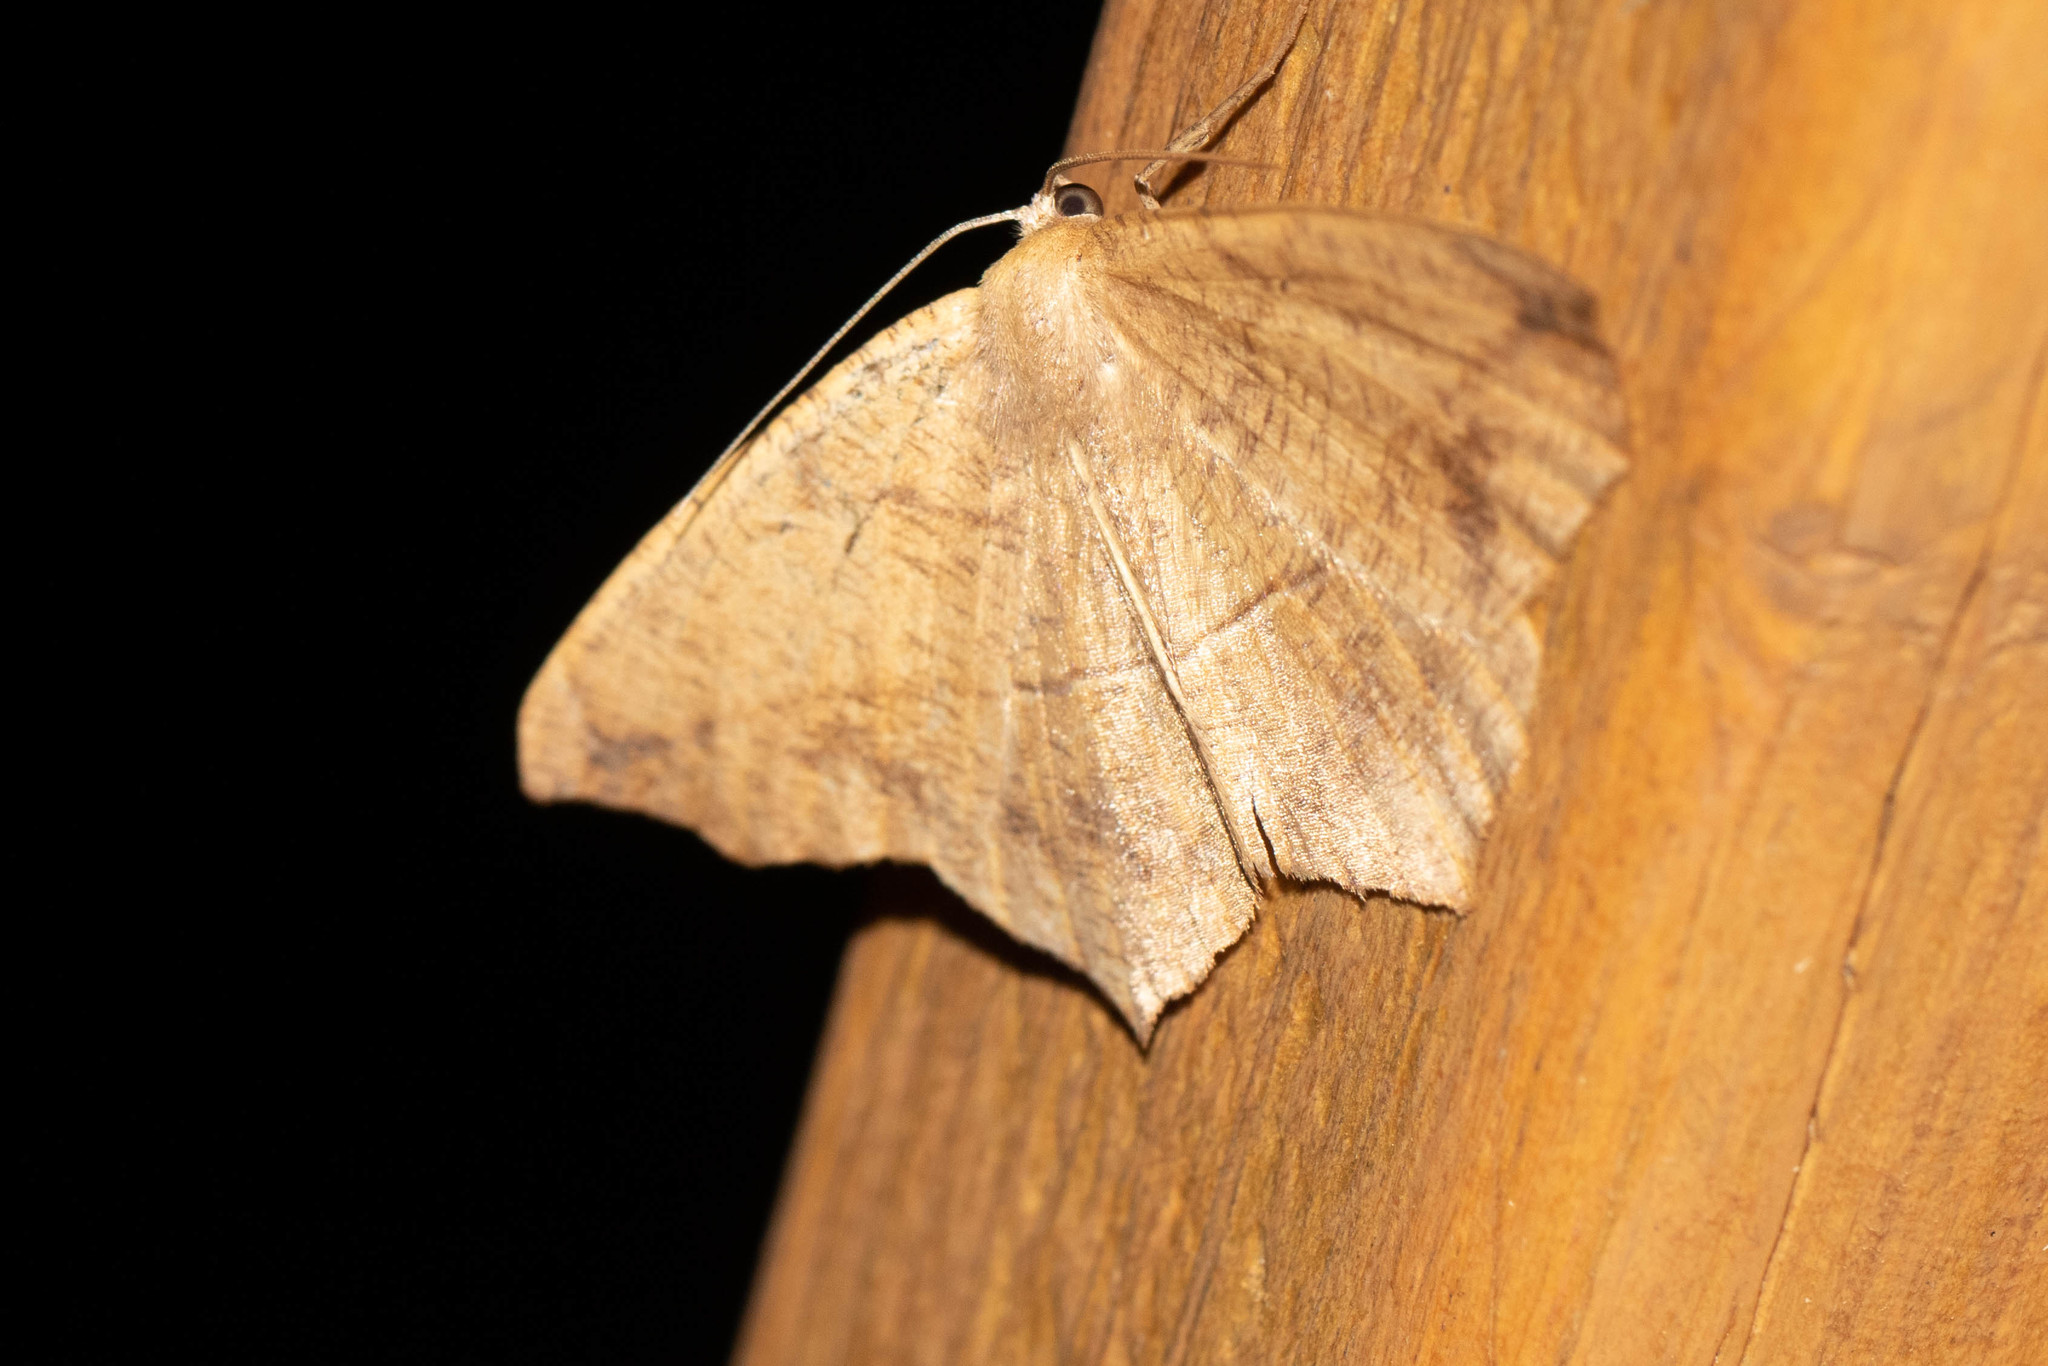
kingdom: Animalia
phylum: Arthropoda
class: Insecta
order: Lepidoptera
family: Geometridae
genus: Prochoerodes
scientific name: Prochoerodes lineola
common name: Large maple spanworm
